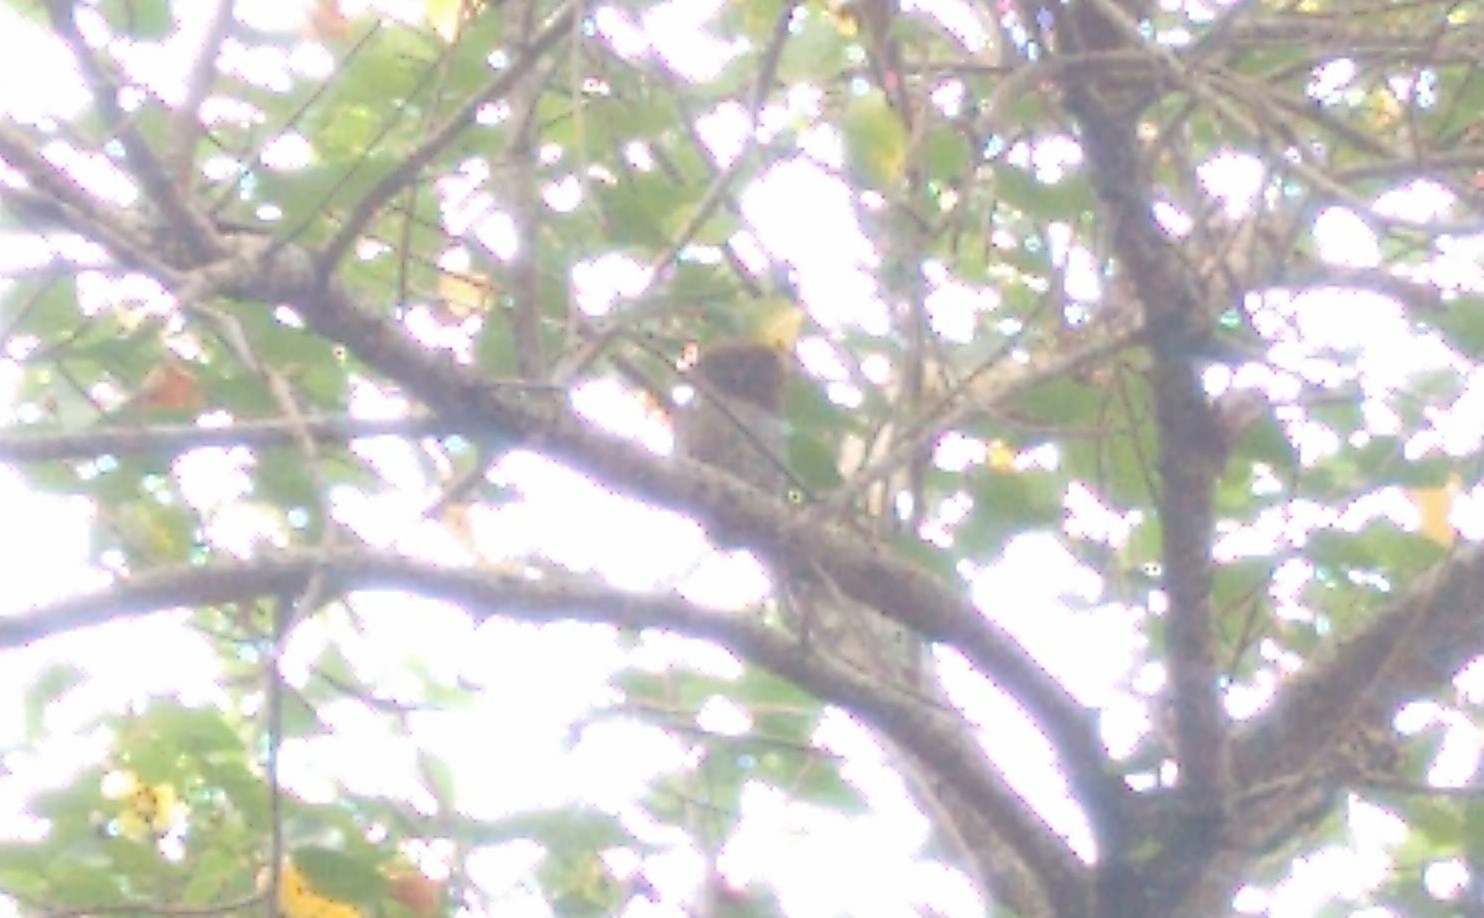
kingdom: Animalia
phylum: Chordata
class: Aves
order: Strigiformes
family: Strigidae
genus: Glaucidium
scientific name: Glaucidium radiatum
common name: Jungle owlet
